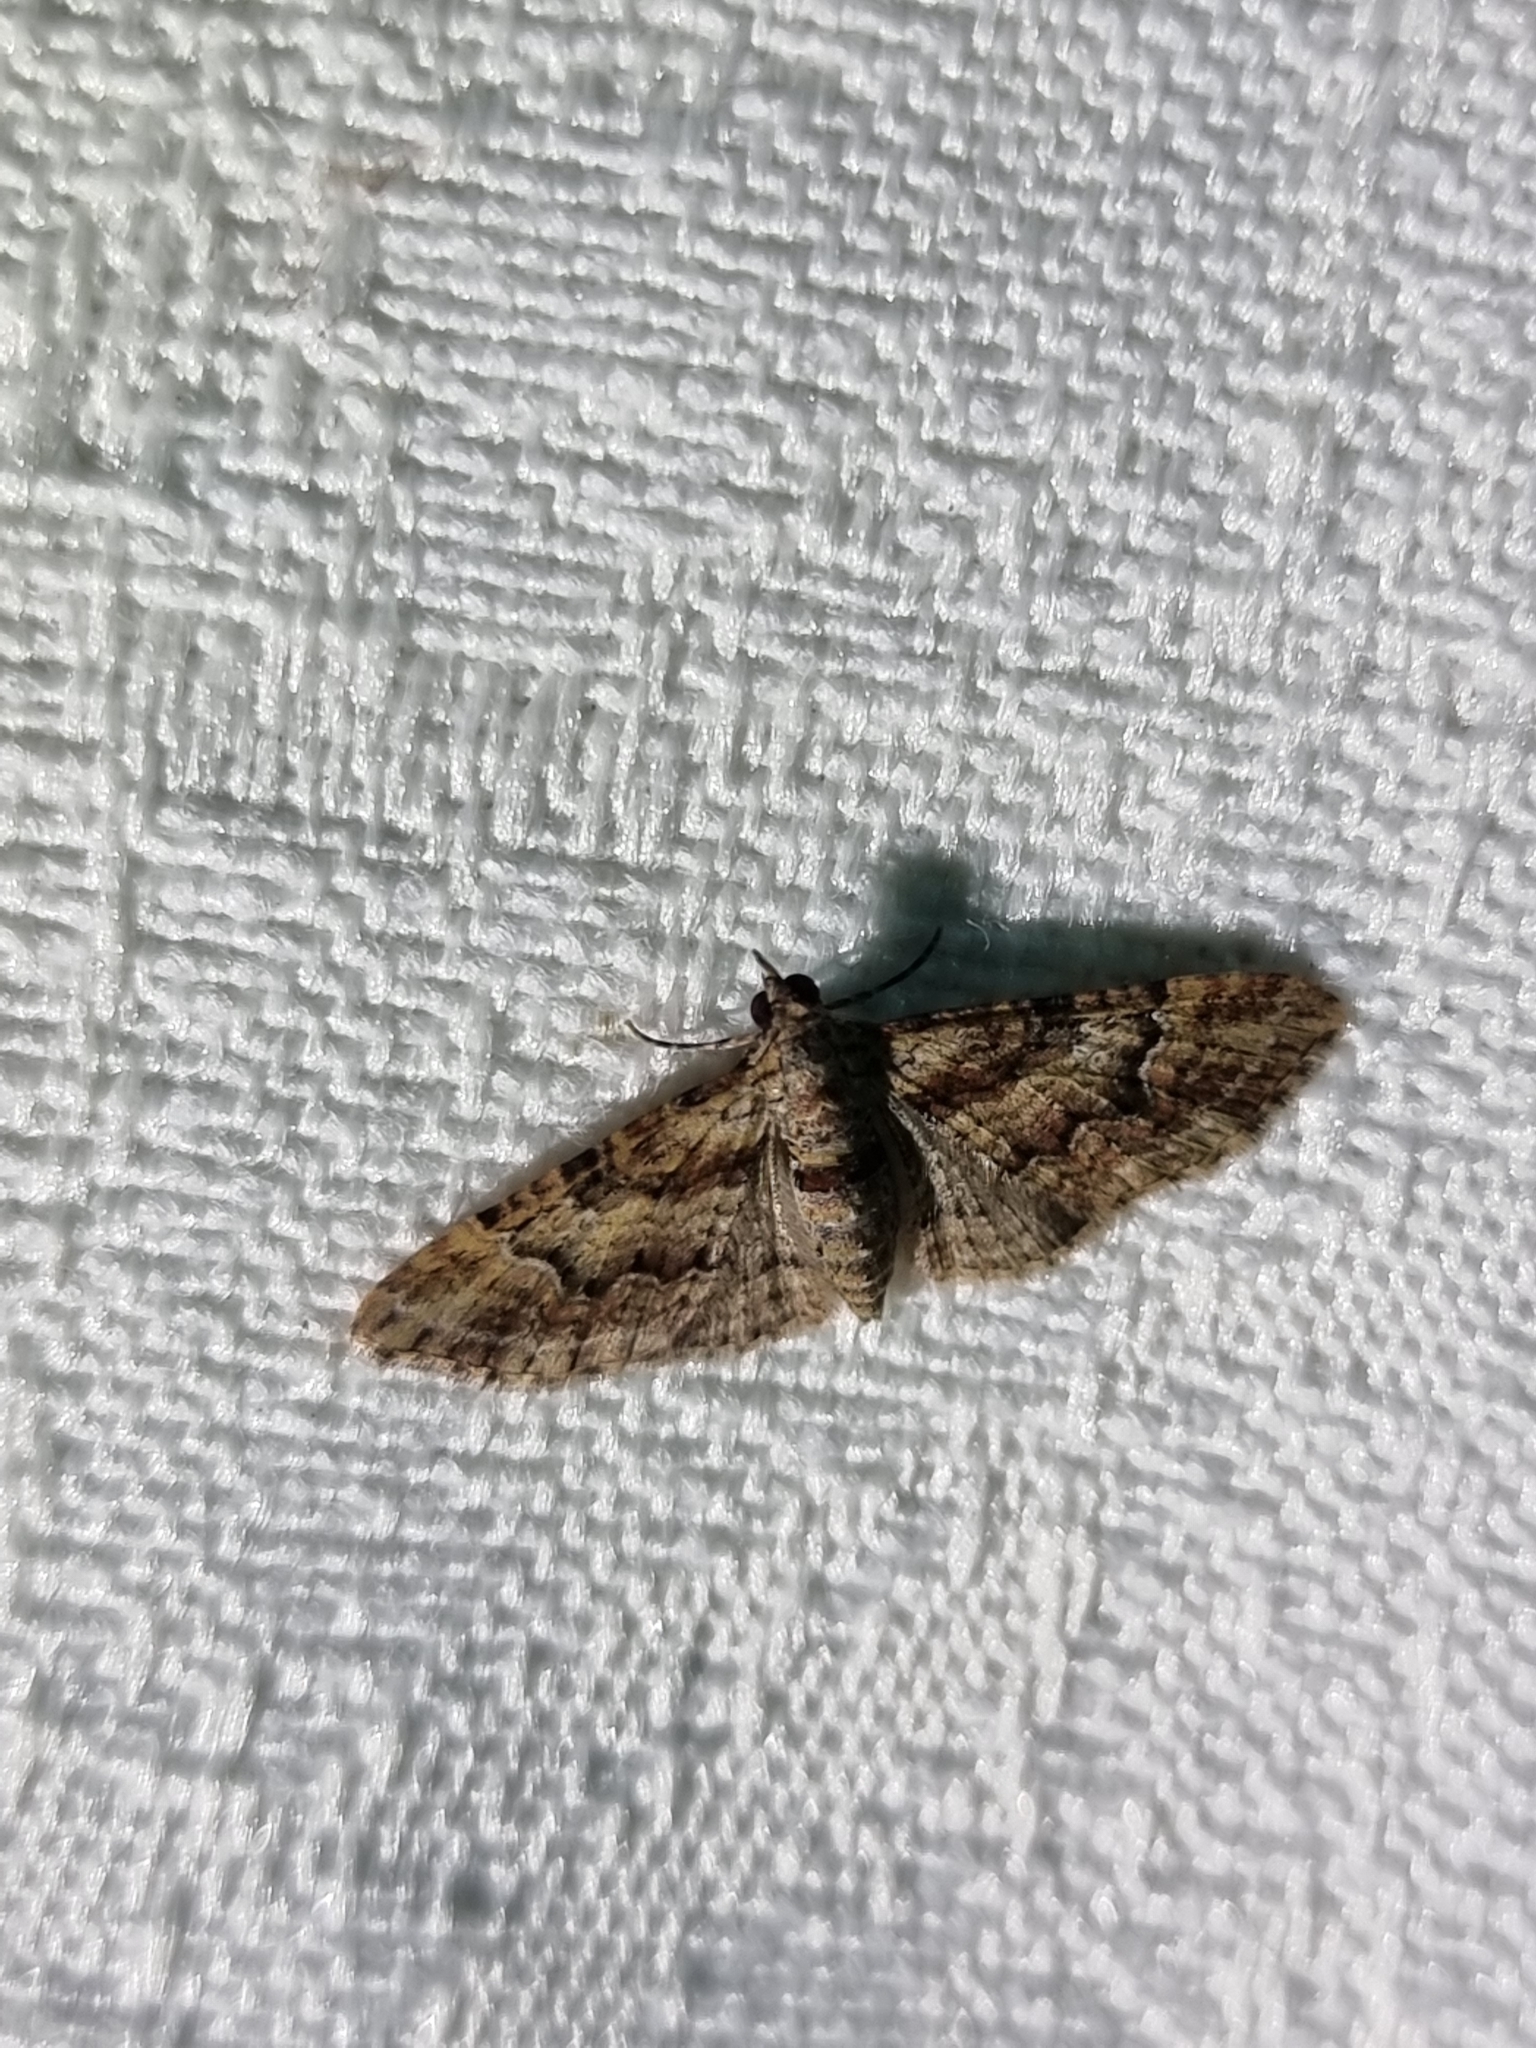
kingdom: Animalia
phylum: Arthropoda
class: Insecta
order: Lepidoptera
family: Geometridae
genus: Mnesiloba
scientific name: Mnesiloba eupitheciata
